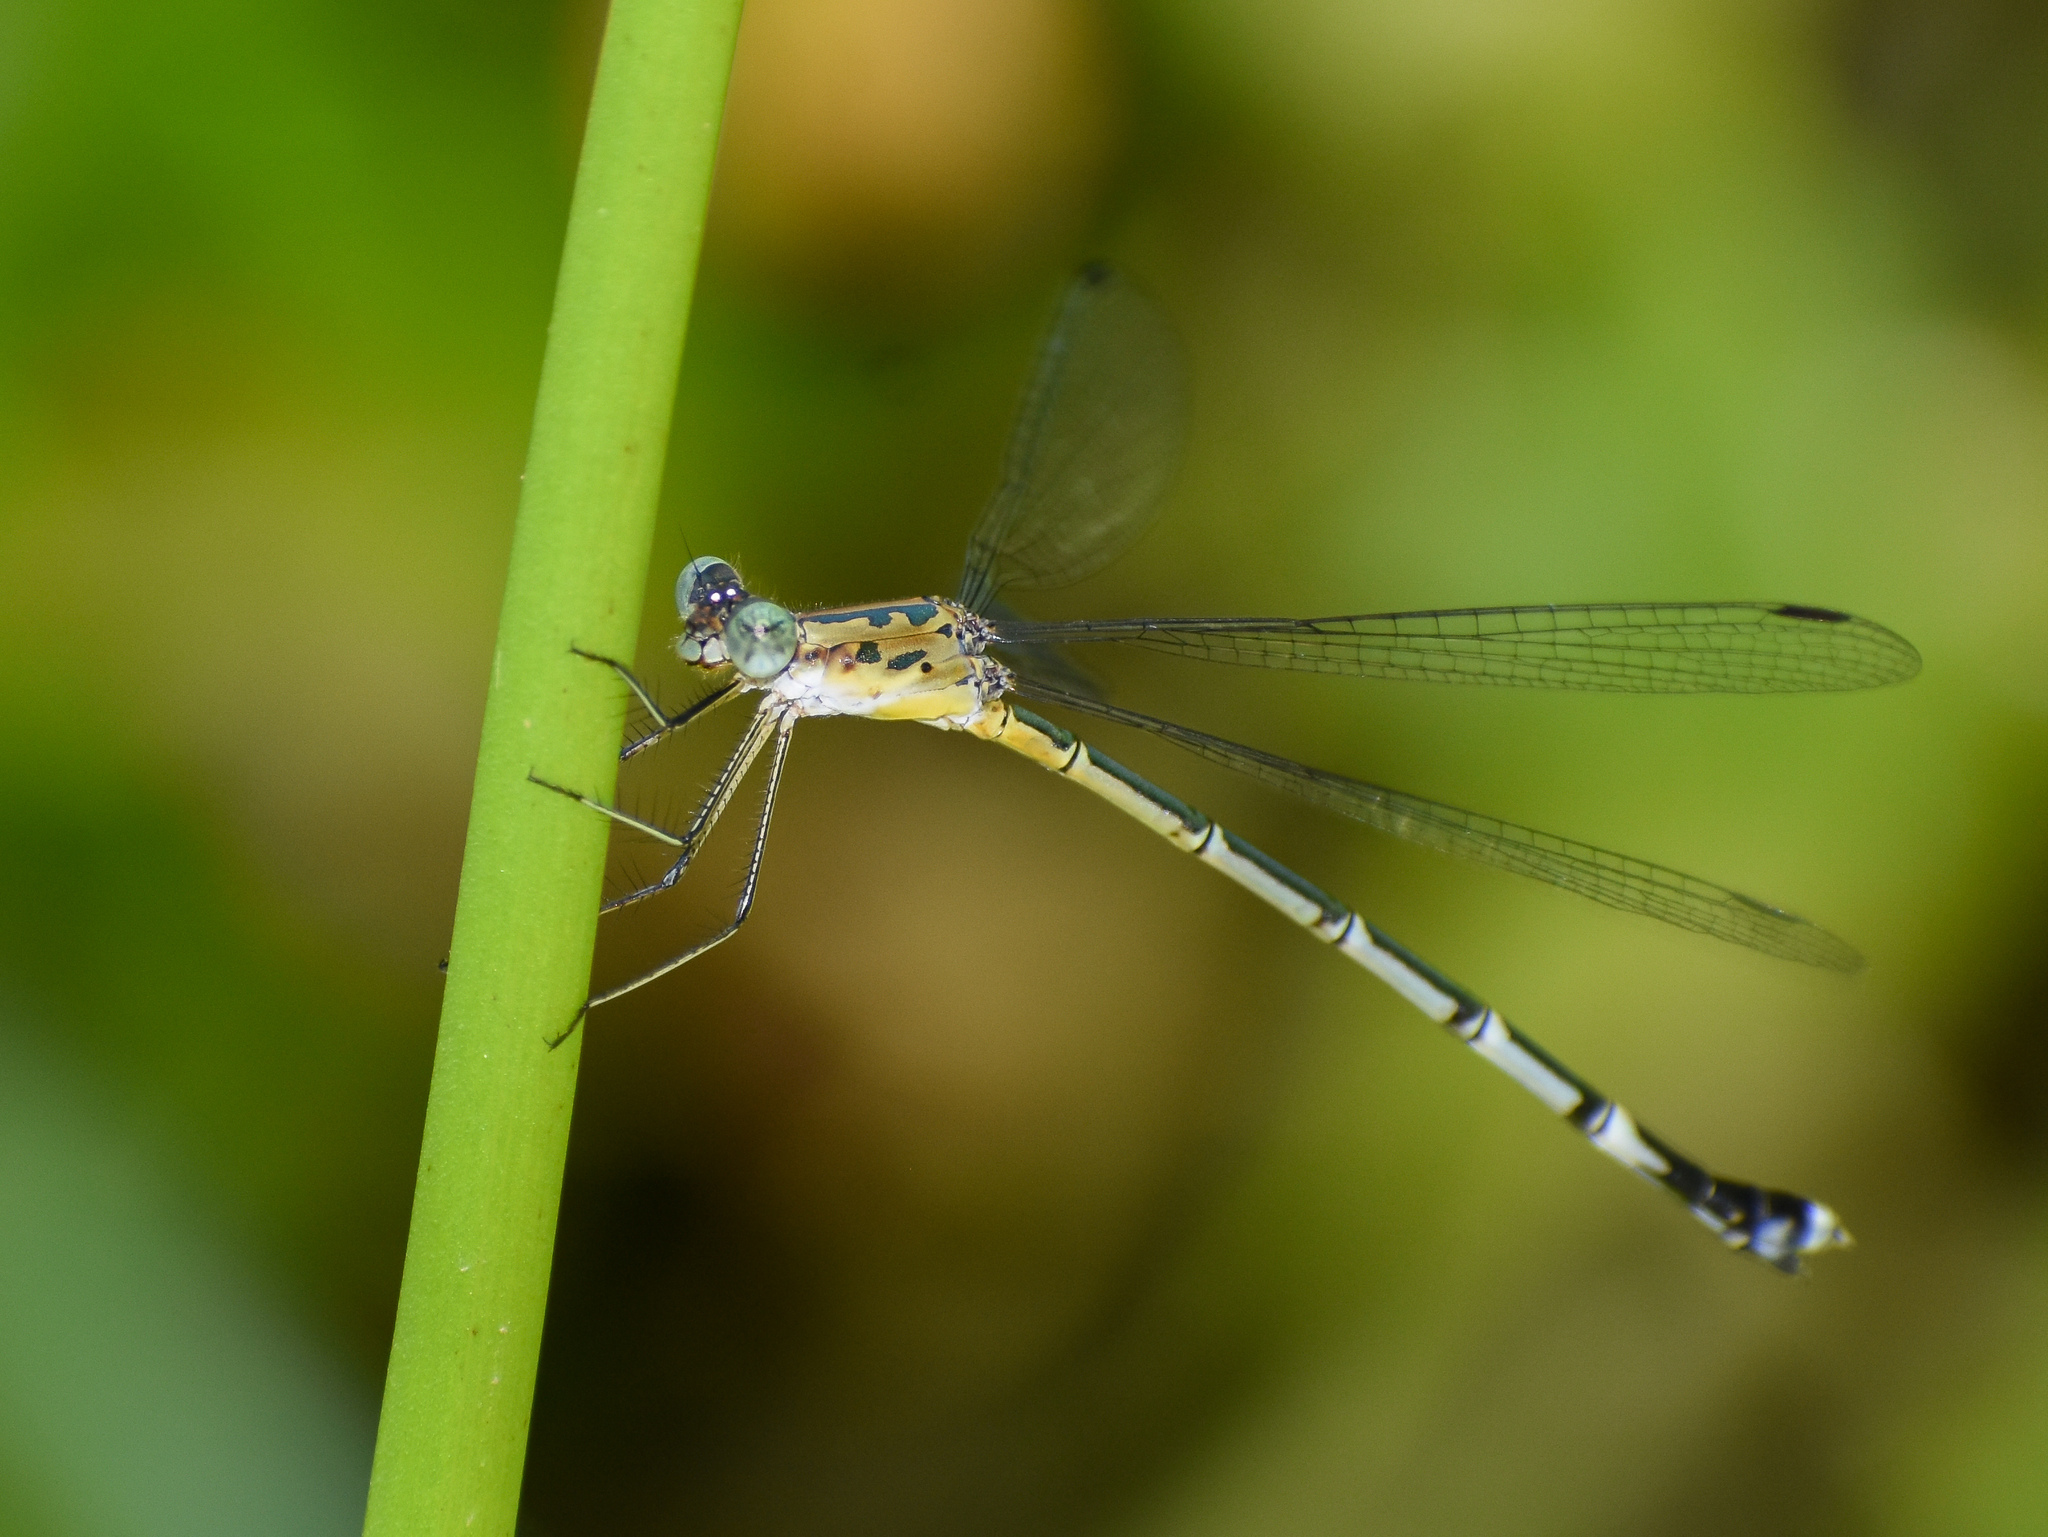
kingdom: Animalia
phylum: Arthropoda
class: Insecta
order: Odonata
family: Lestidae
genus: Lestes
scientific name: Lestes praemorsus
